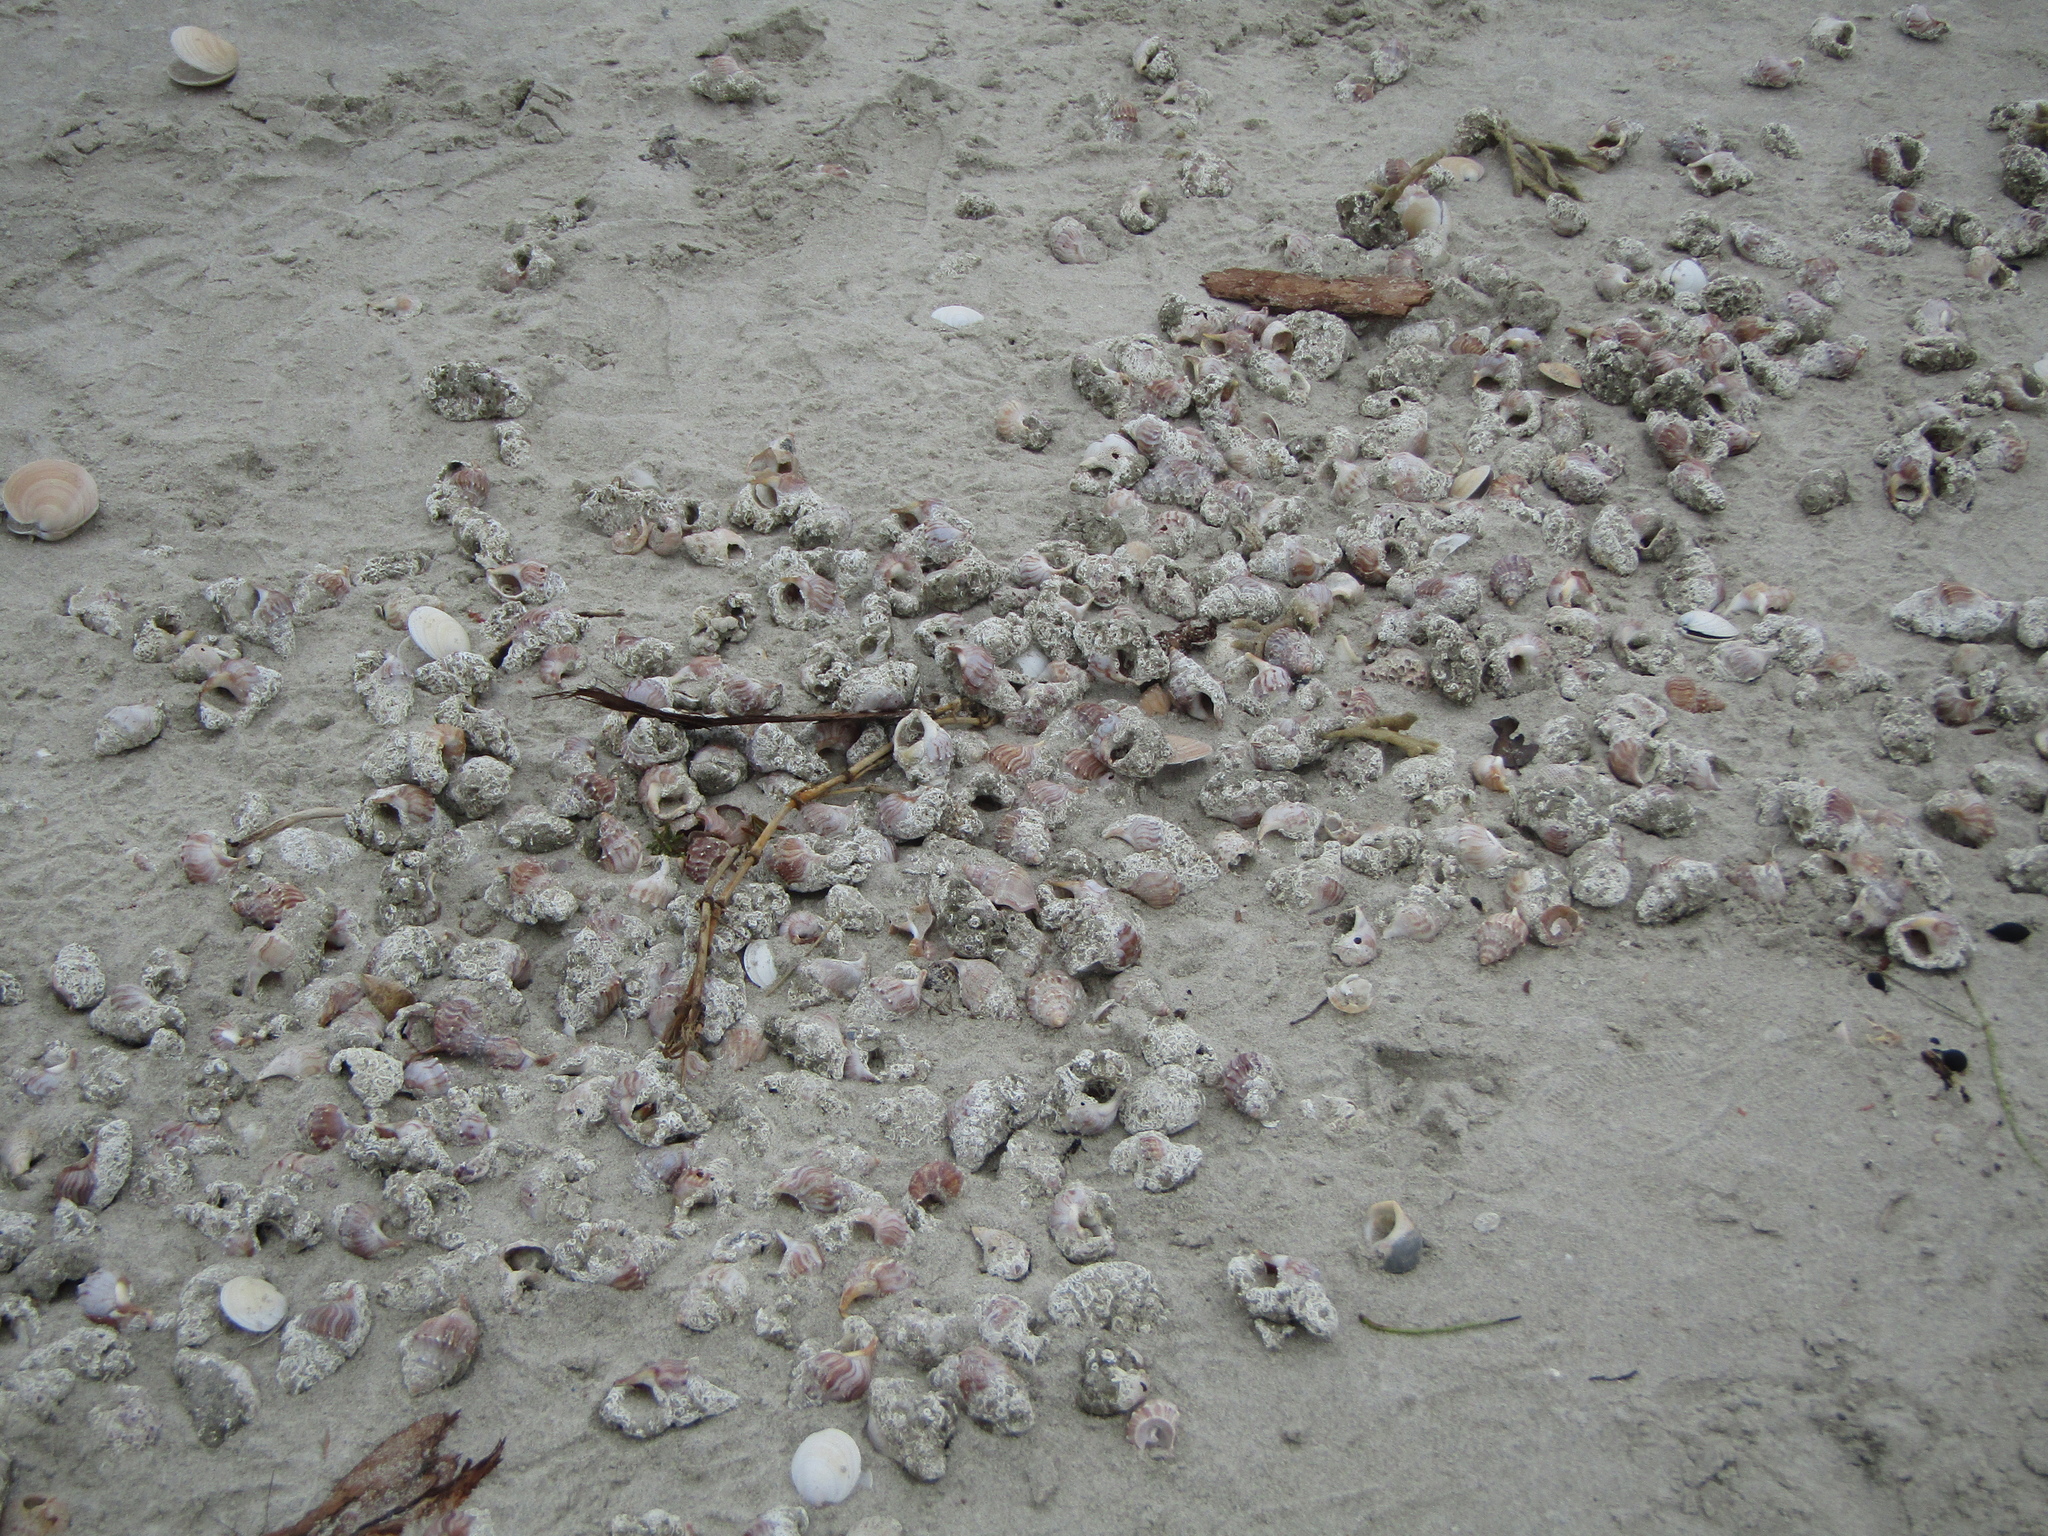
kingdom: Animalia
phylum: Mollusca
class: Gastropoda
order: Littorinimorpha
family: Struthiolariidae
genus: Struthiolaria
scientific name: Struthiolaria papulosa
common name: Large ostrich foot
